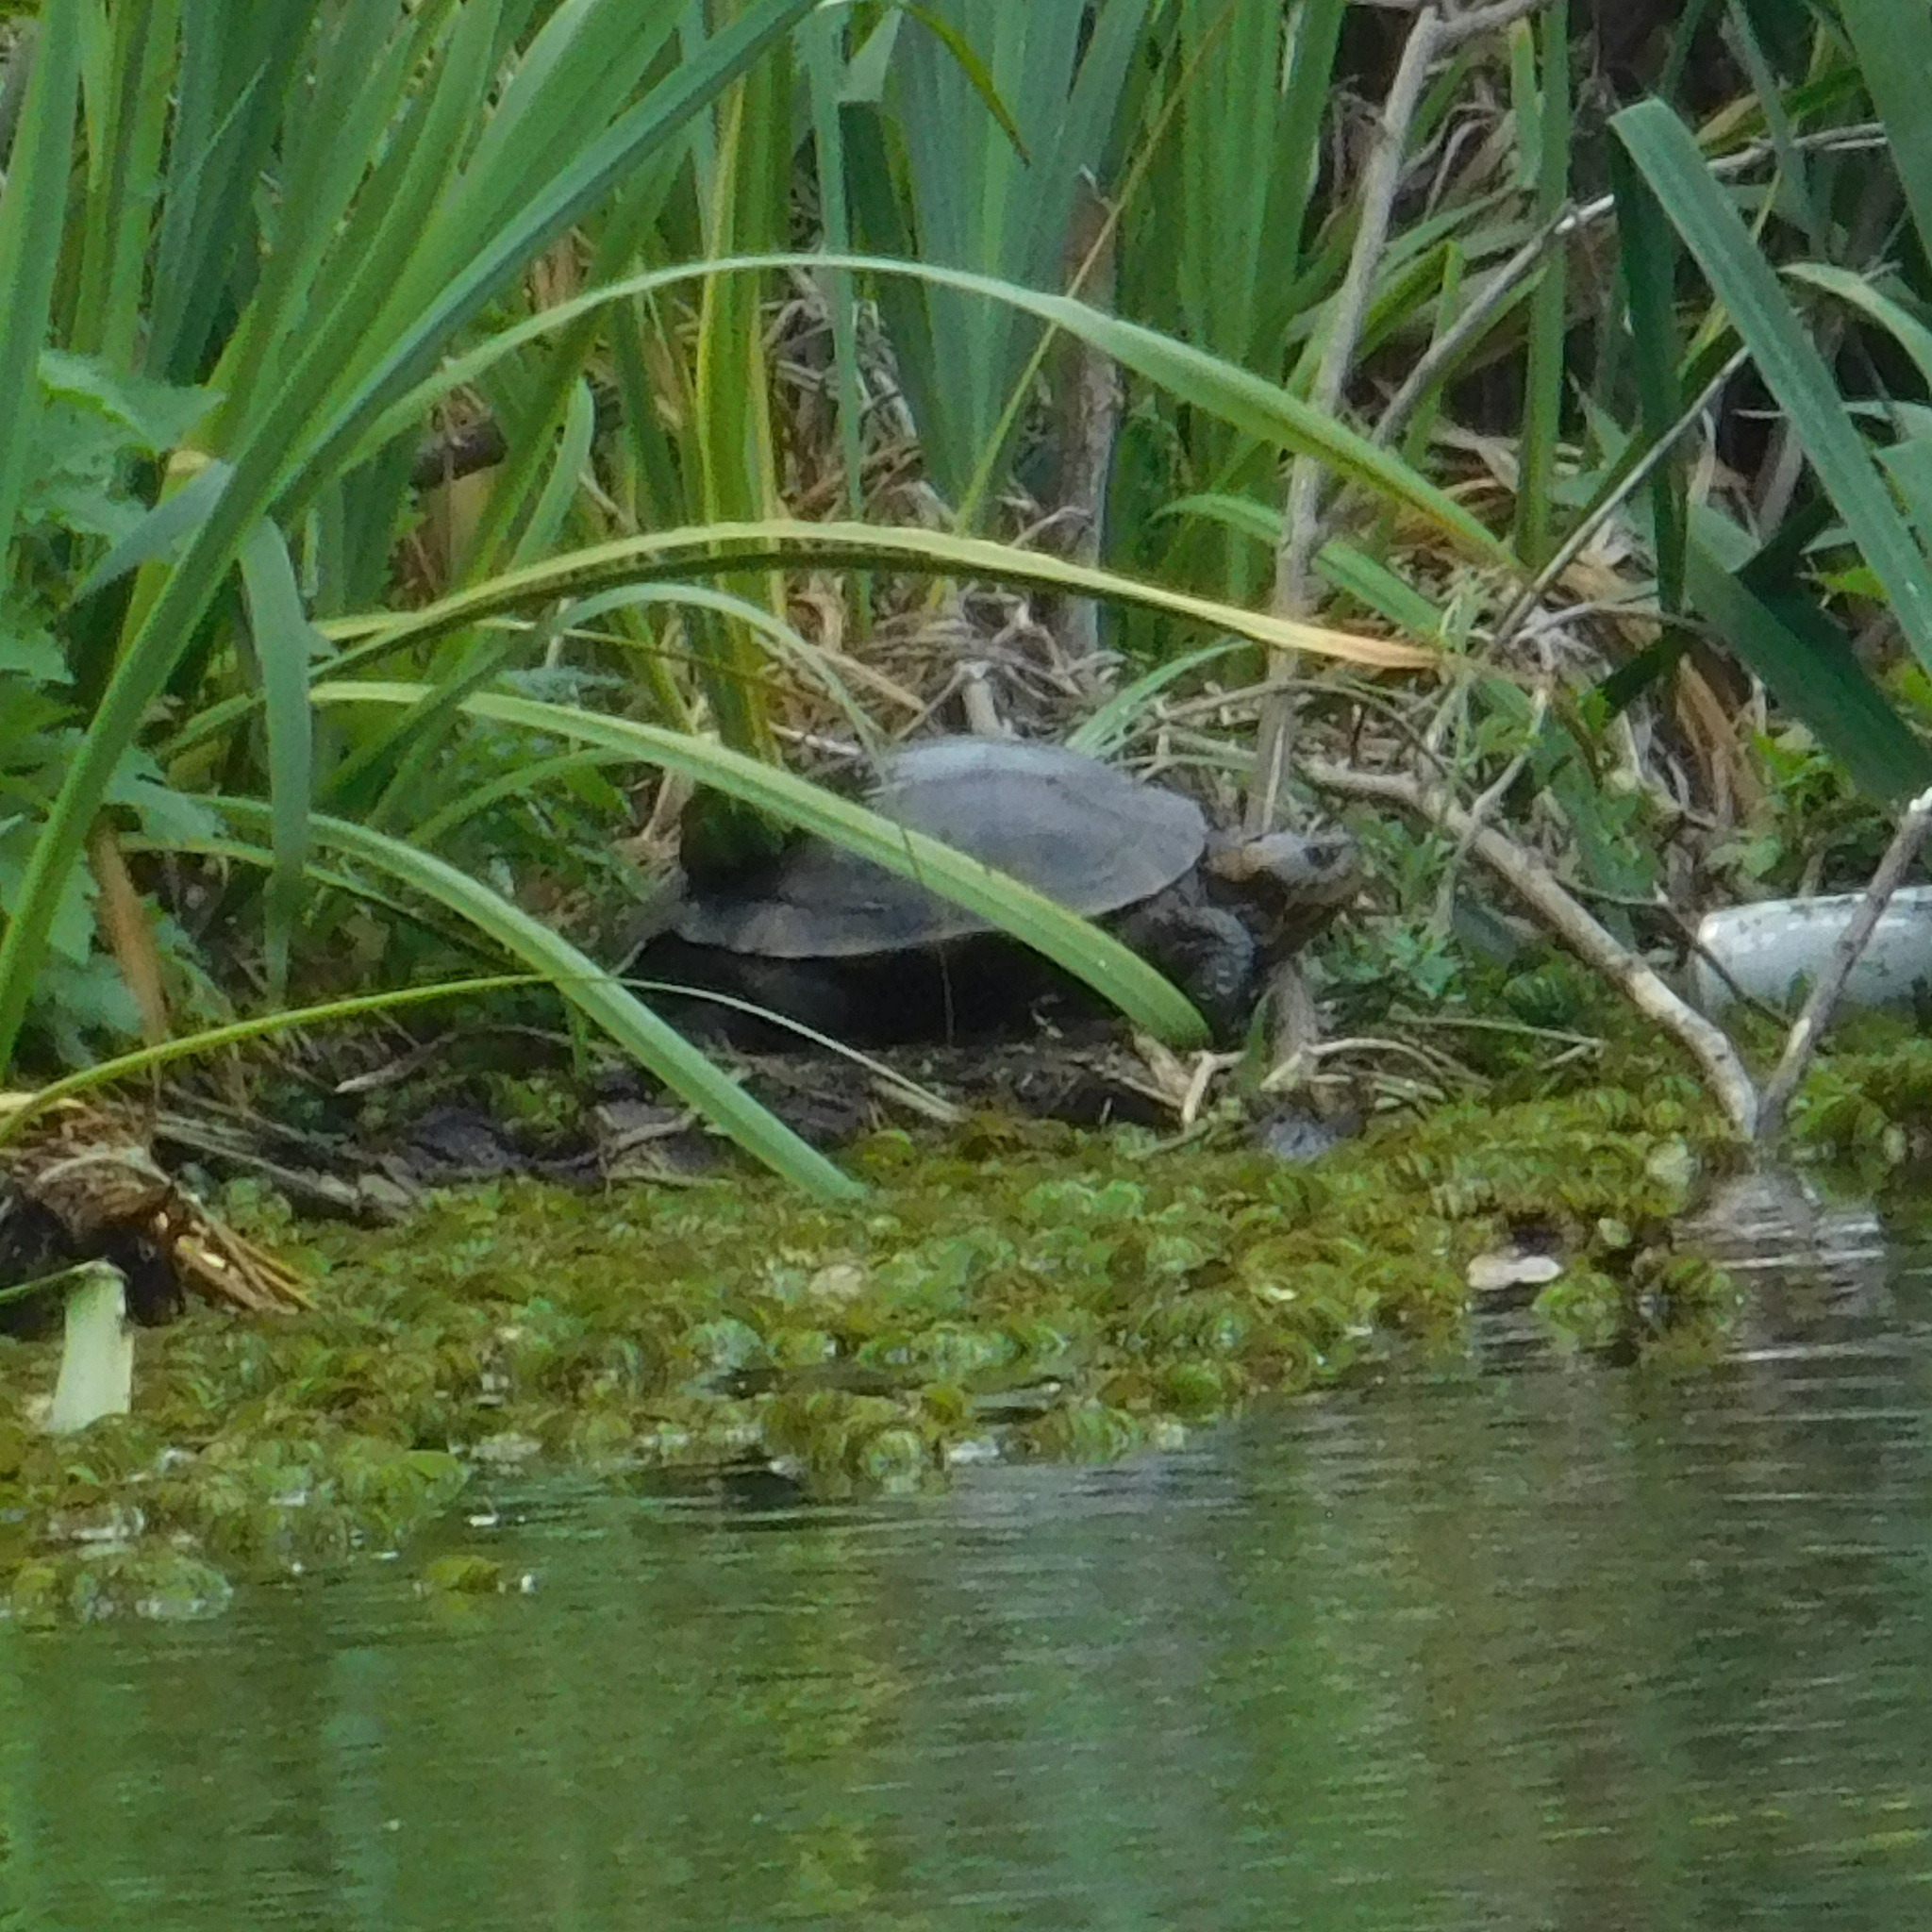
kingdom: Animalia
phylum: Chordata
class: Testudines
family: Emydidae
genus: Trachemys
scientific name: Trachemys dorbigni
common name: Black-bellied slider
